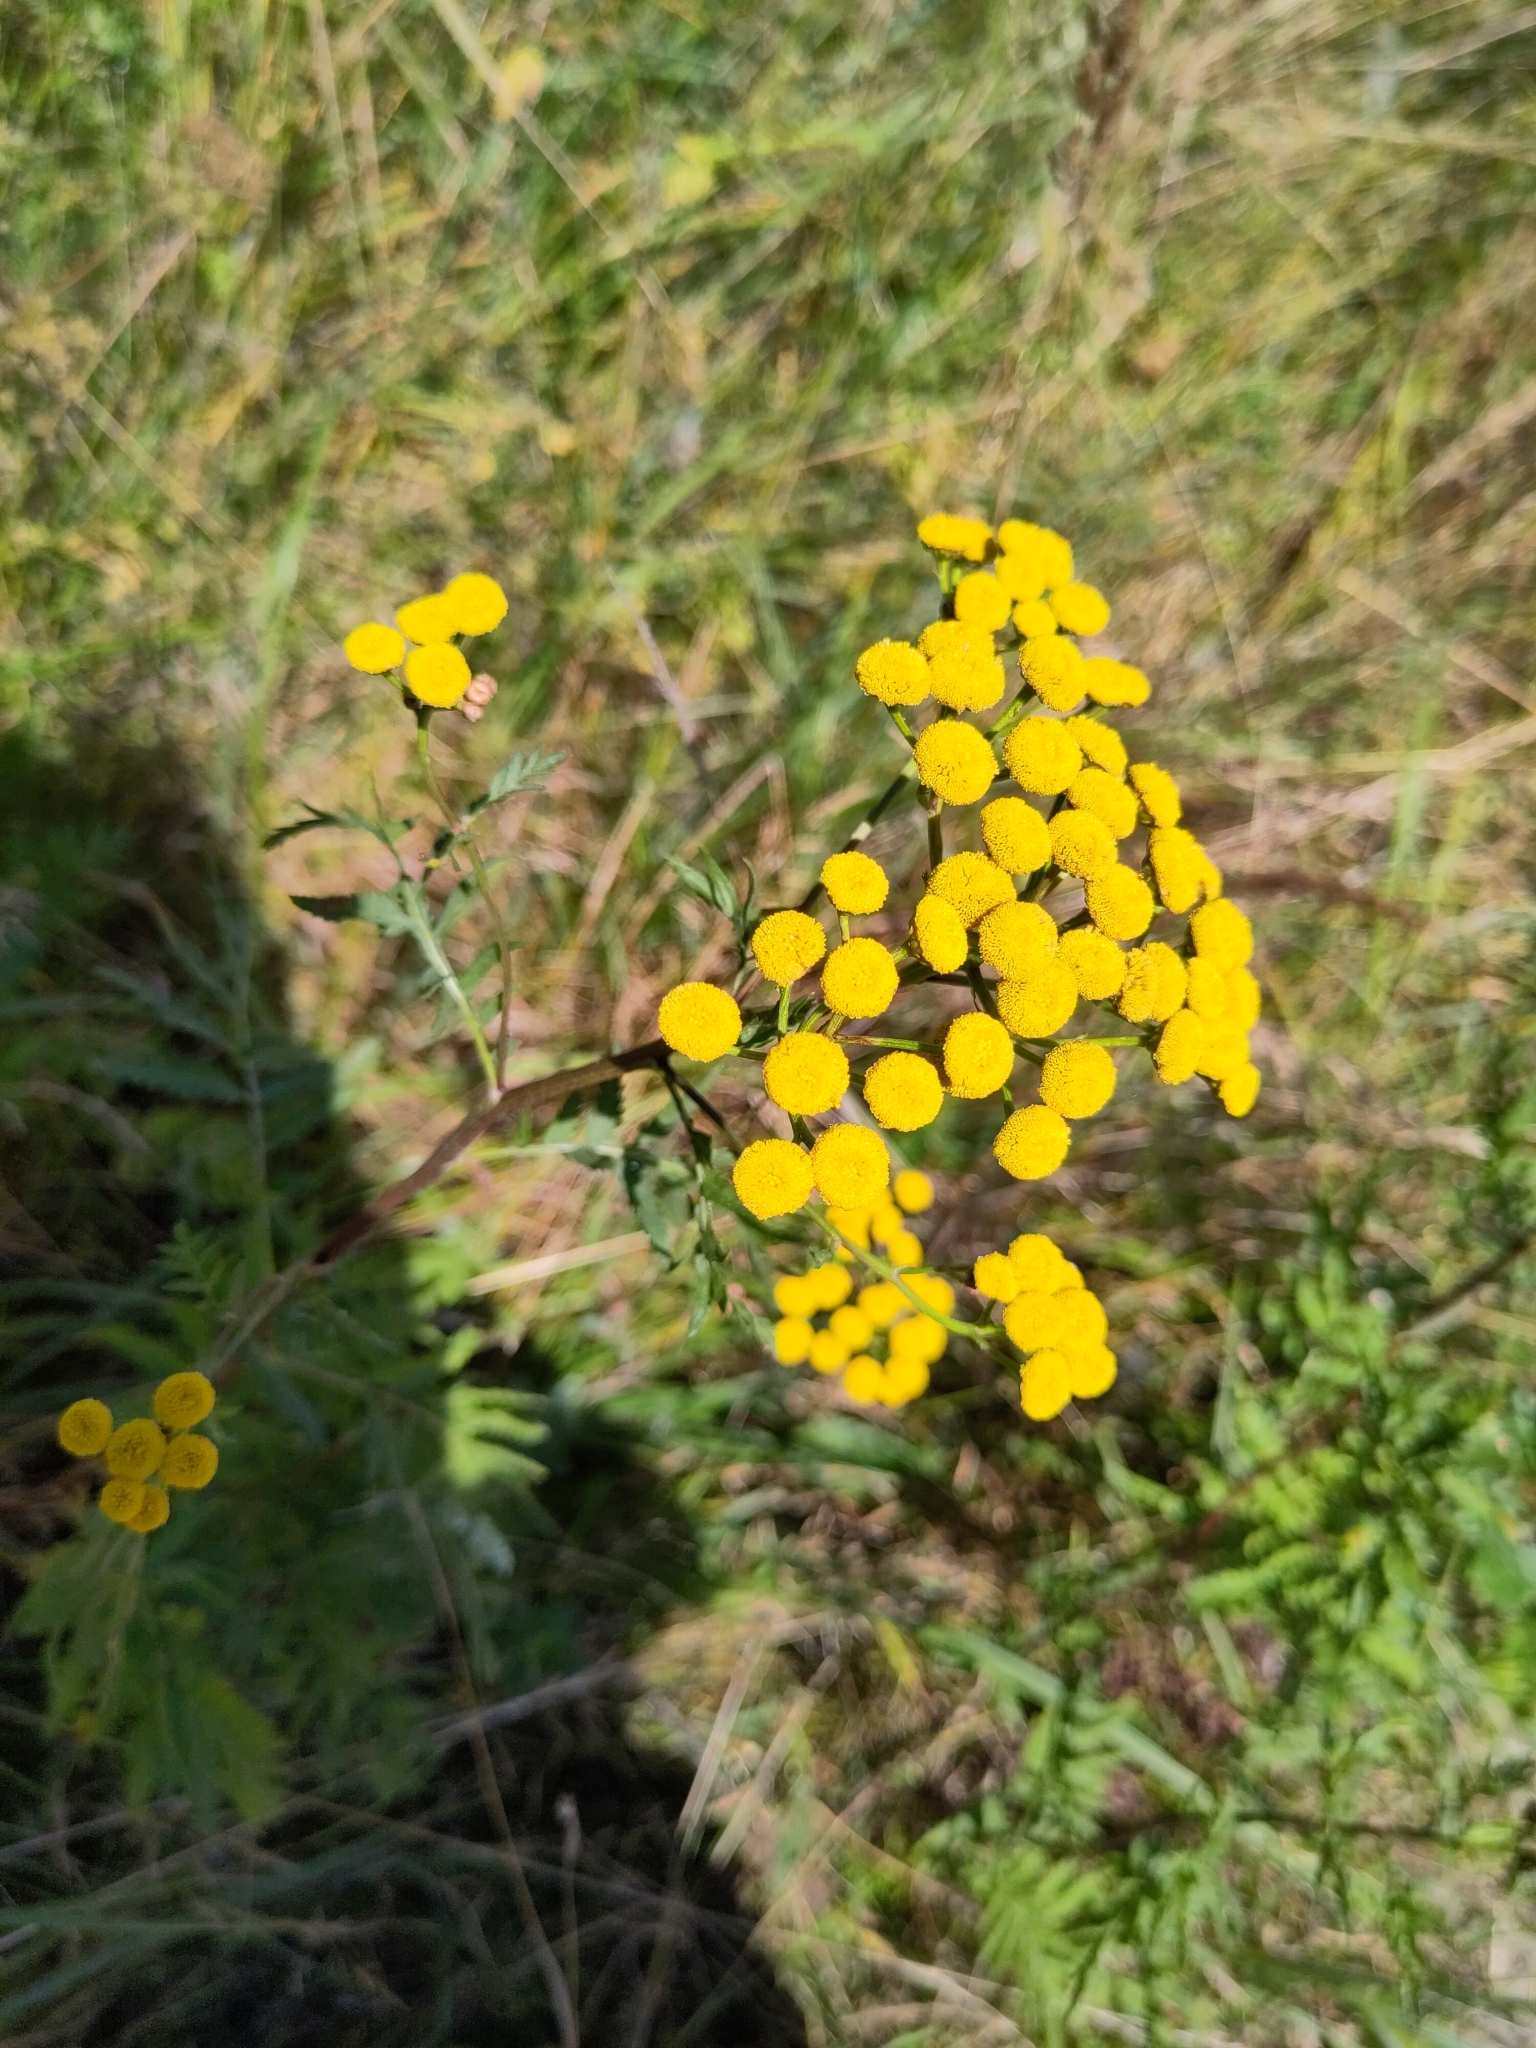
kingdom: Plantae
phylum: Tracheophyta
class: Magnoliopsida
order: Asterales
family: Asteraceae
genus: Tanacetum
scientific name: Tanacetum vulgare
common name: Common tansy
